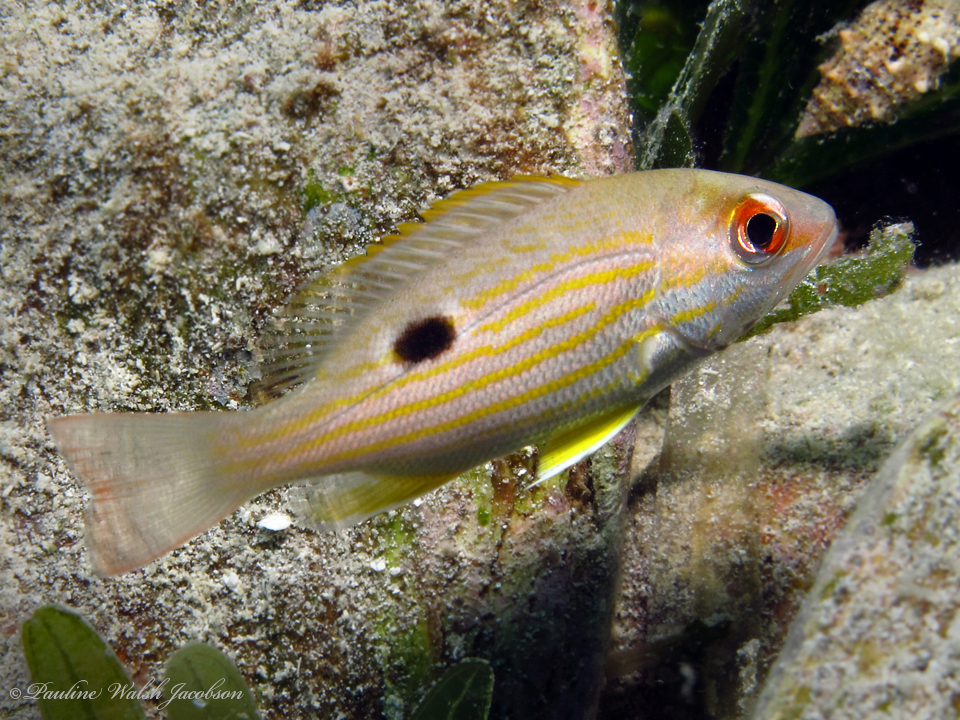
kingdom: Animalia
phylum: Chordata
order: Perciformes
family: Lutjanidae
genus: Lutjanus
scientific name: Lutjanus synagris
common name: Lane snapper
